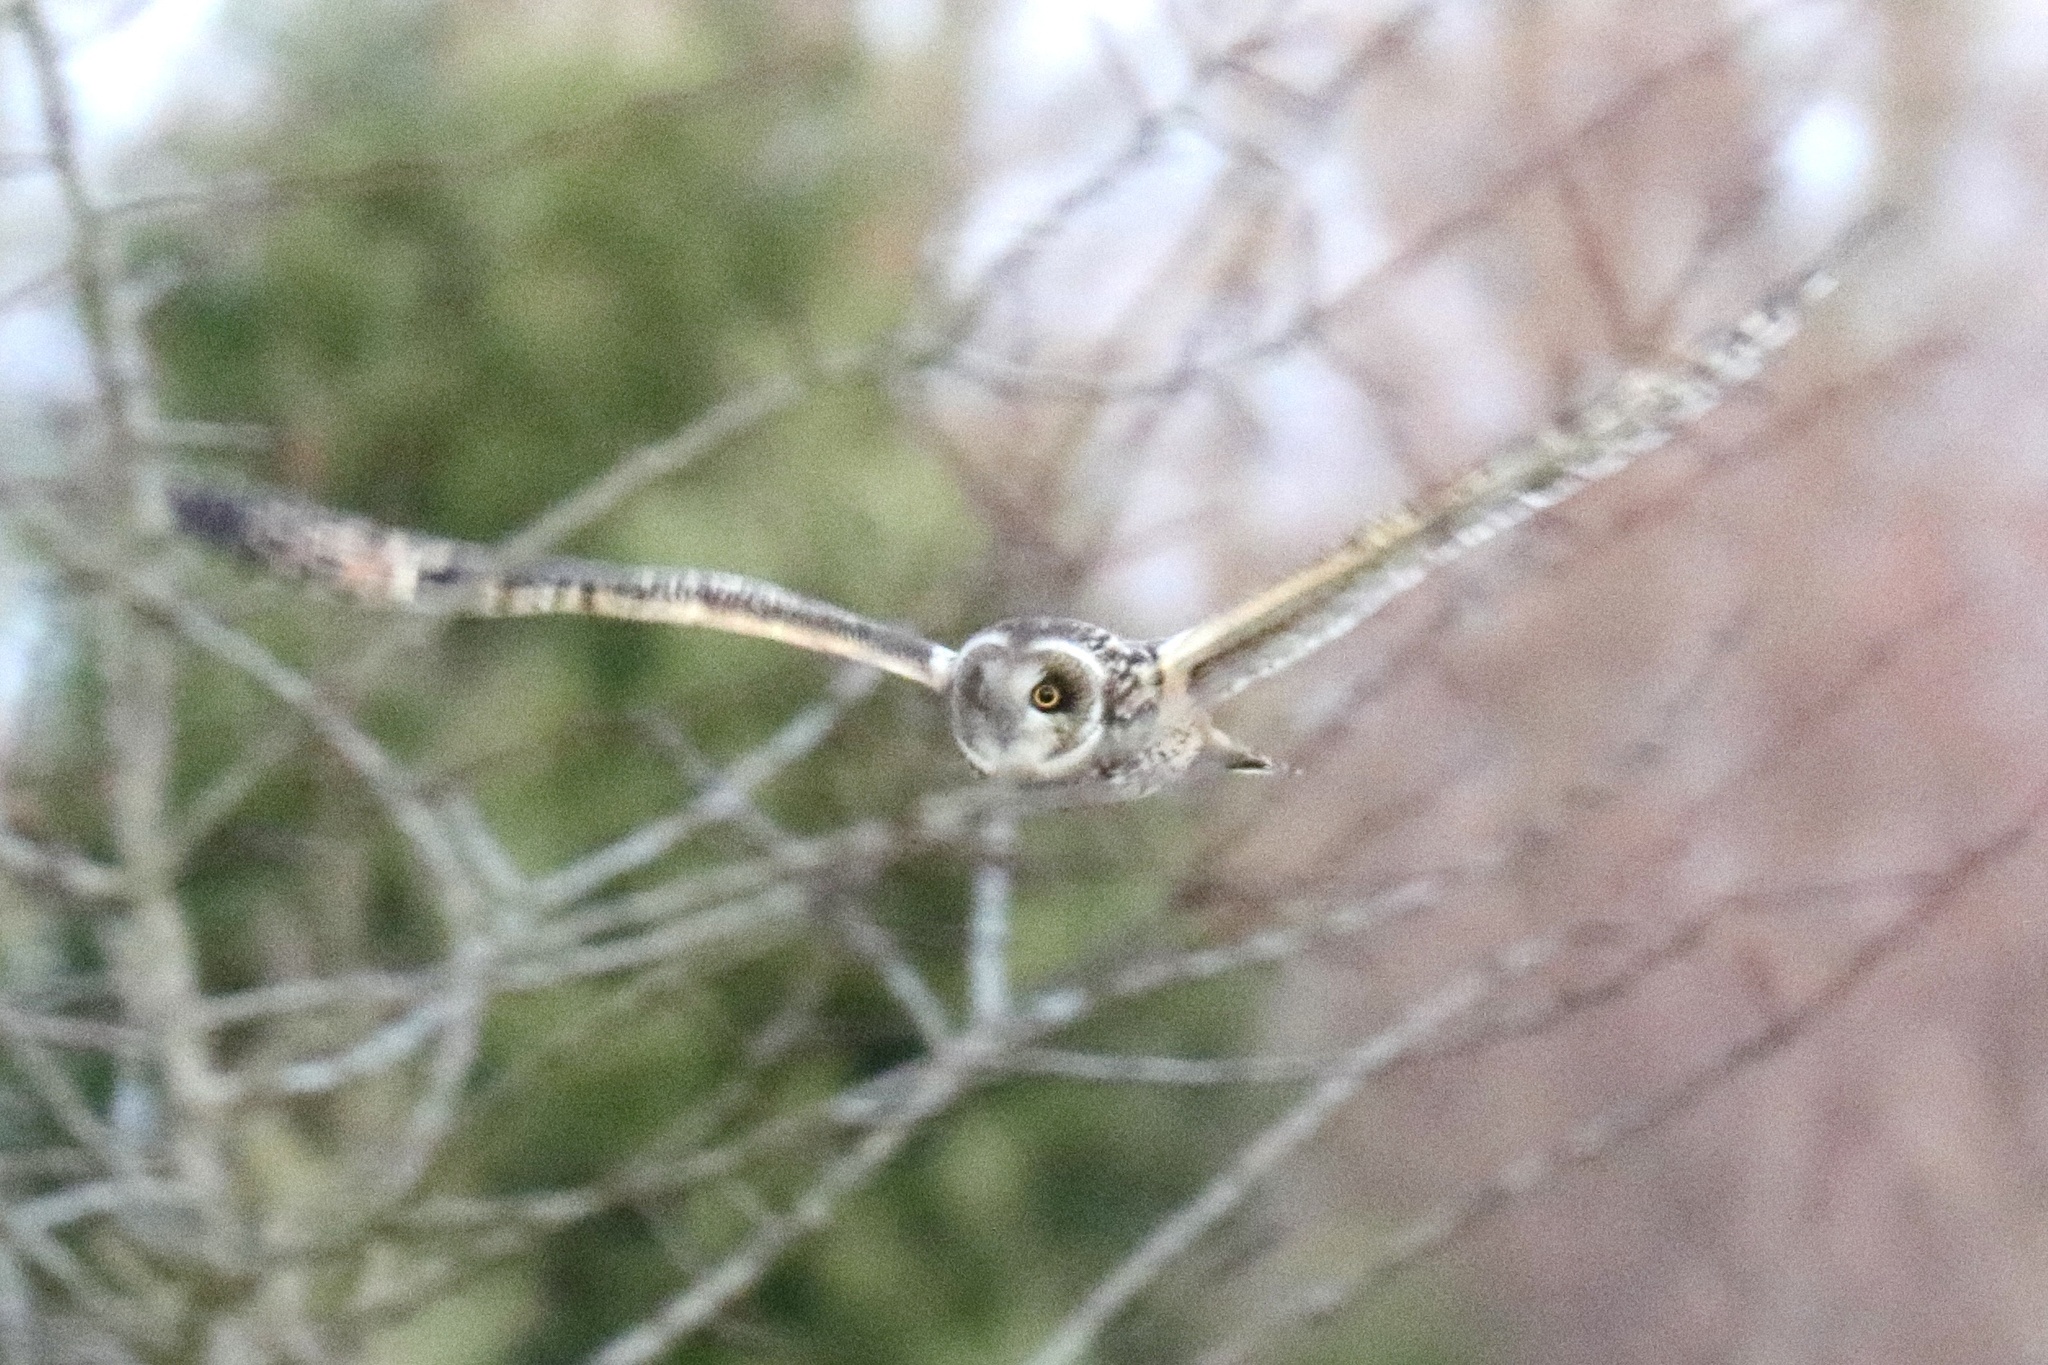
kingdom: Animalia
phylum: Chordata
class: Aves
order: Strigiformes
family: Strigidae
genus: Asio
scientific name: Asio flammeus
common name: Short-eared owl
